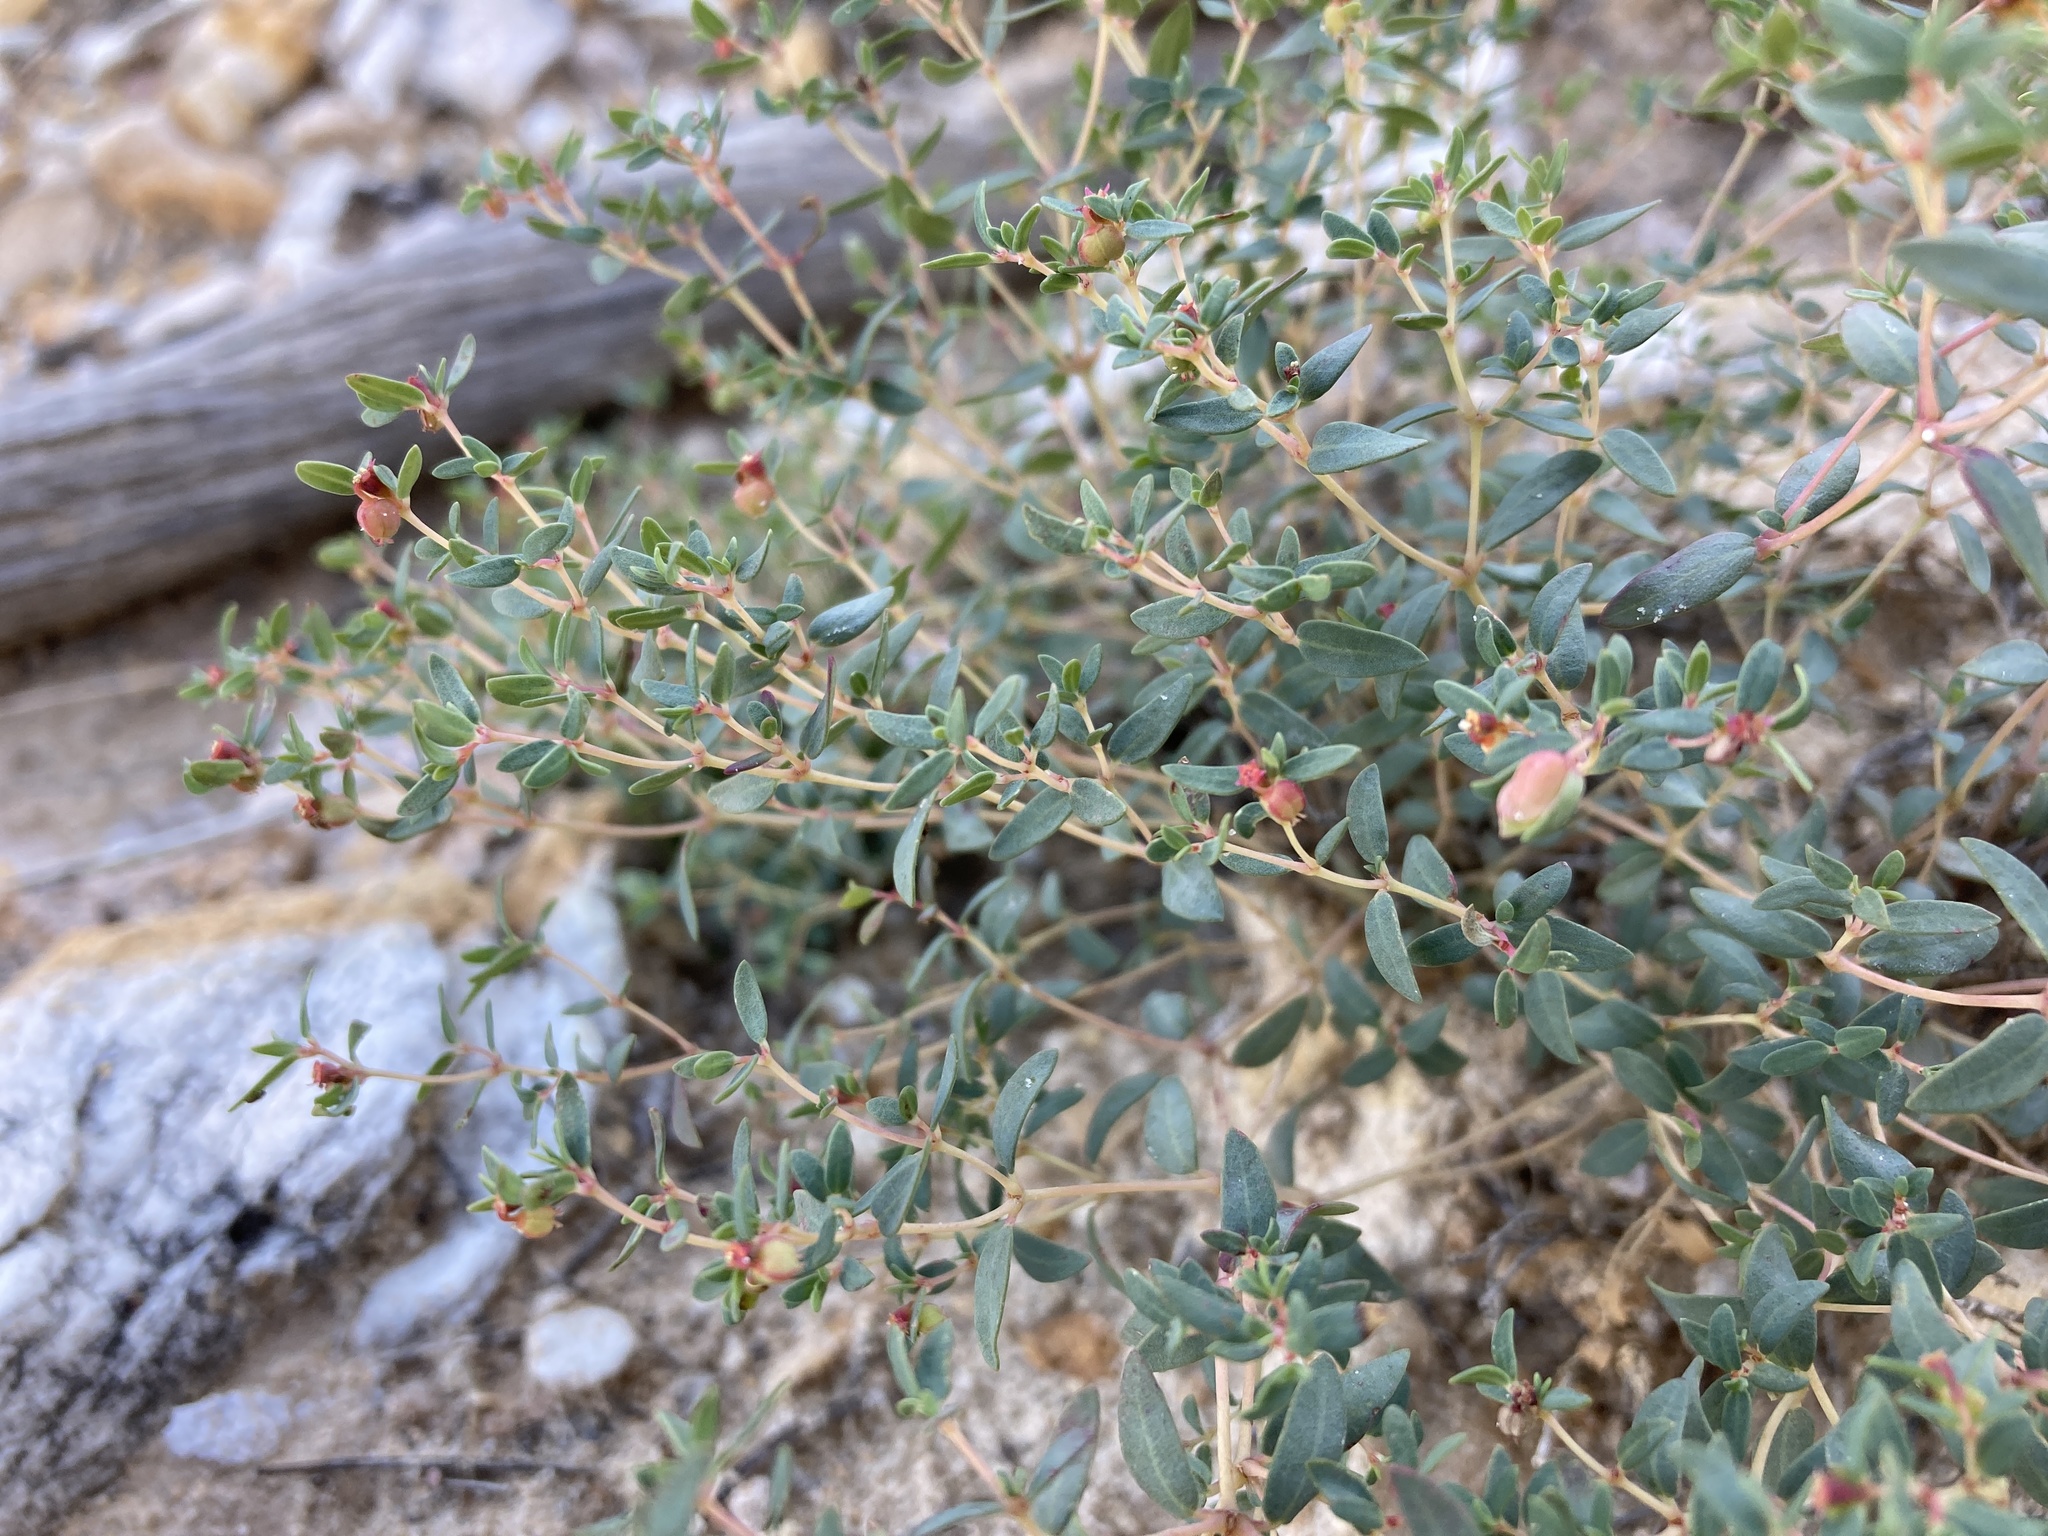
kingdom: Plantae
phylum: Tracheophyta
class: Magnoliopsida
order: Malpighiales
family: Euphorbiaceae
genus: Euphorbia
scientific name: Euphorbia chaetocalyx
